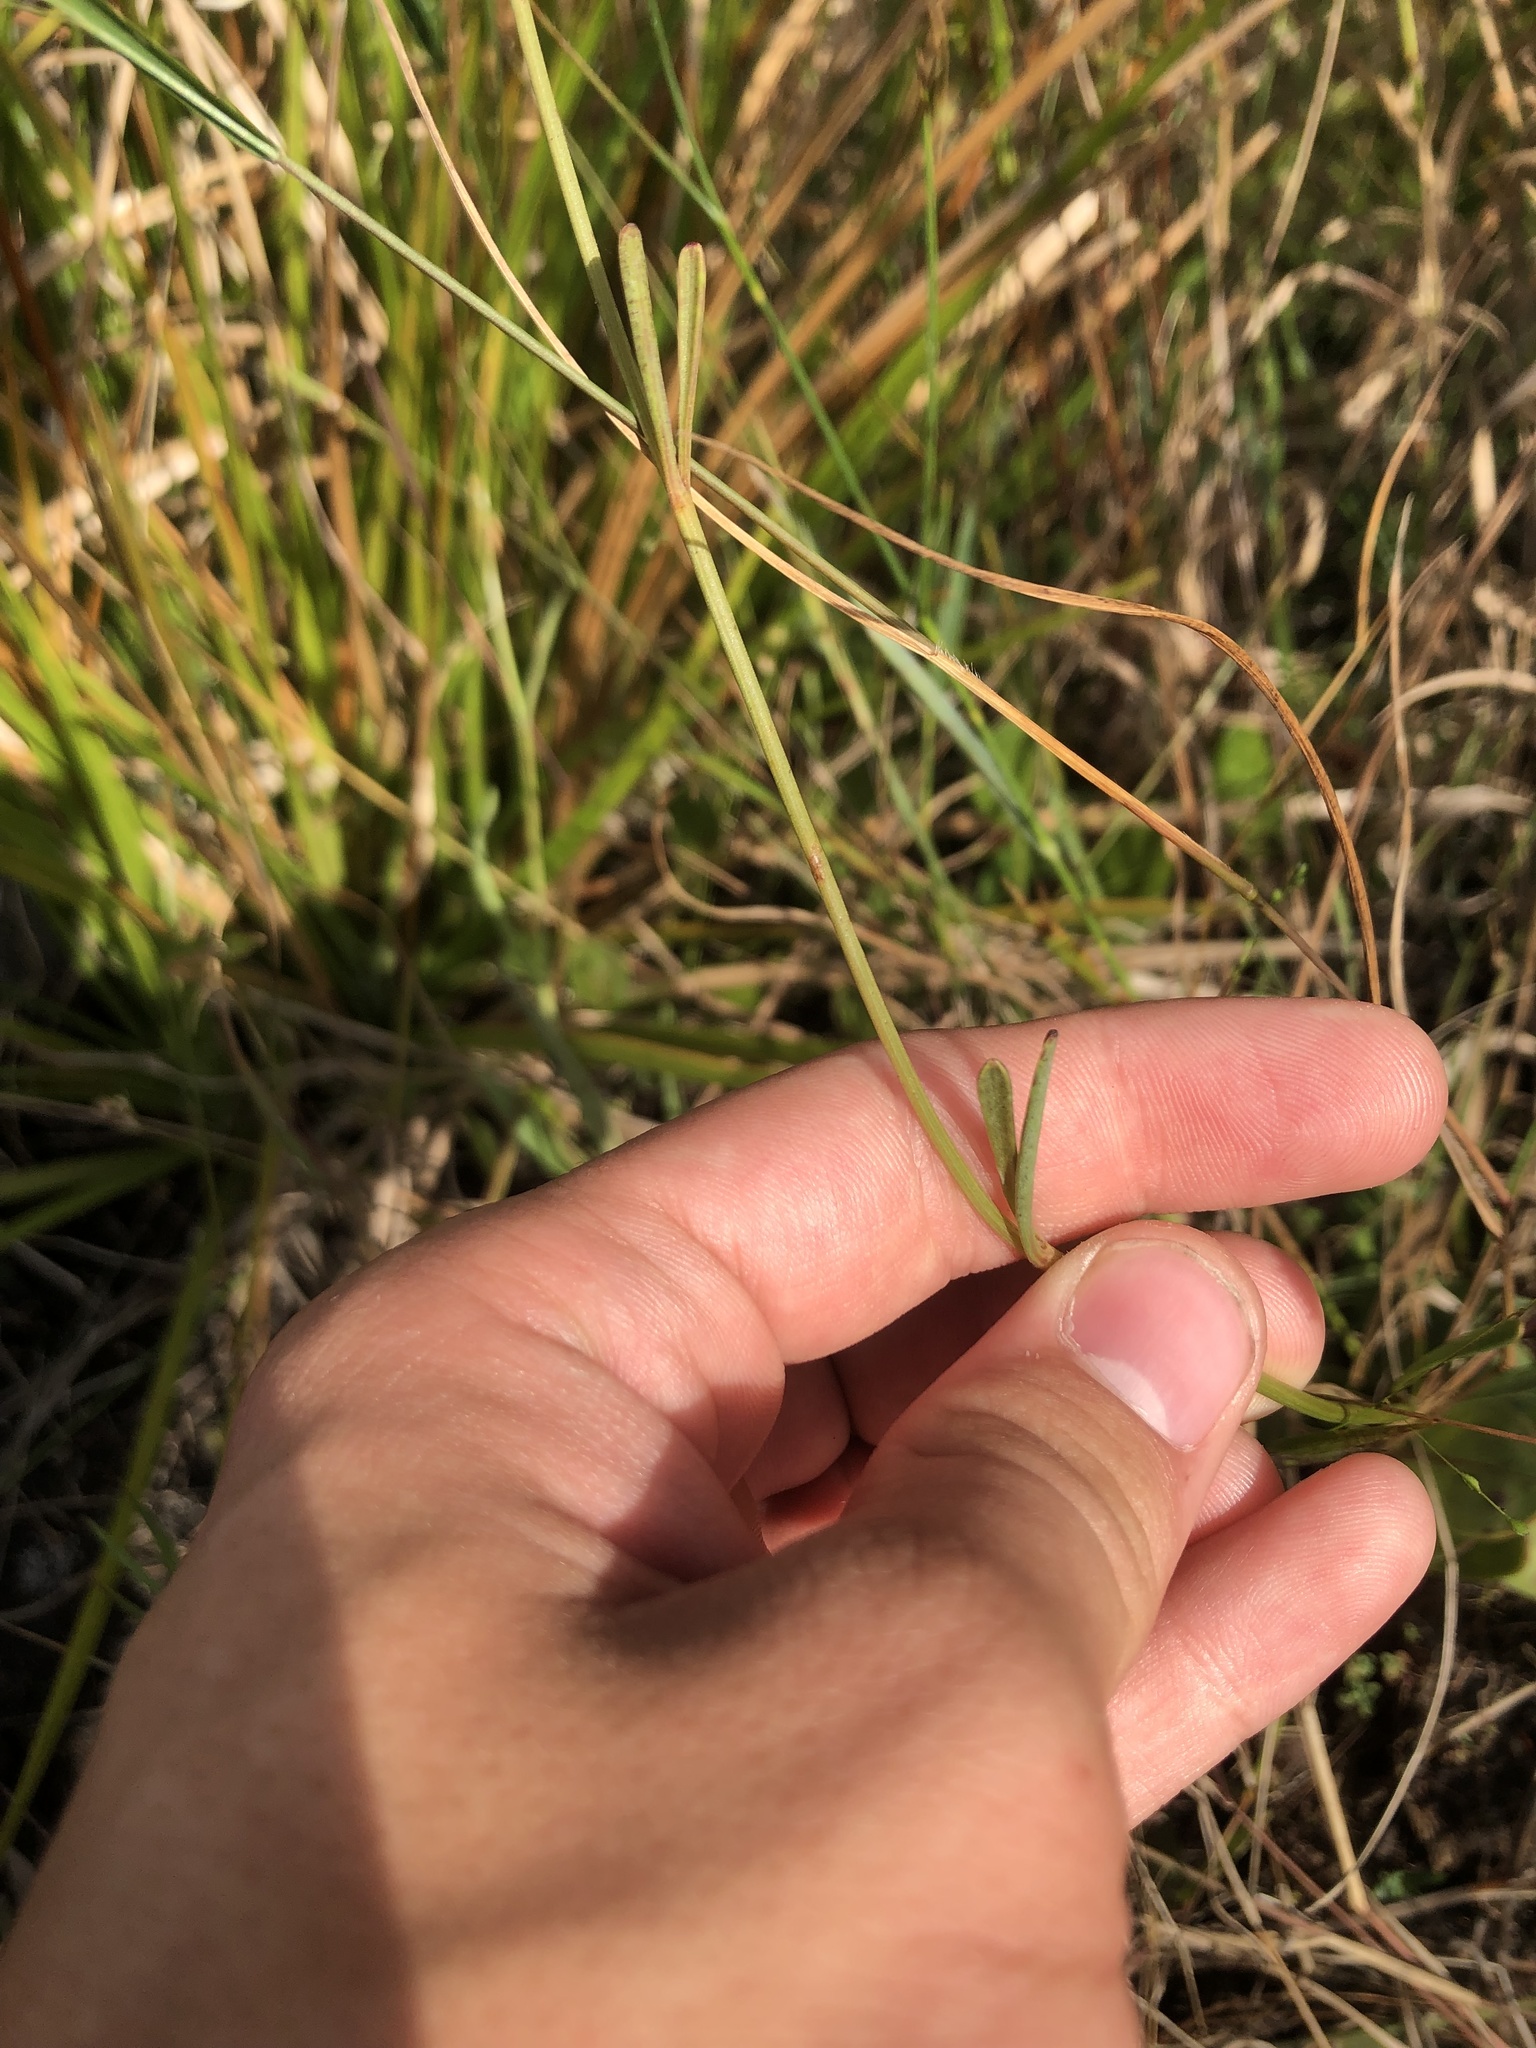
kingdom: Plantae
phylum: Tracheophyta
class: Magnoliopsida
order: Asterales
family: Asteraceae
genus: Coreopsis
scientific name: Coreopsis leavenworthii
